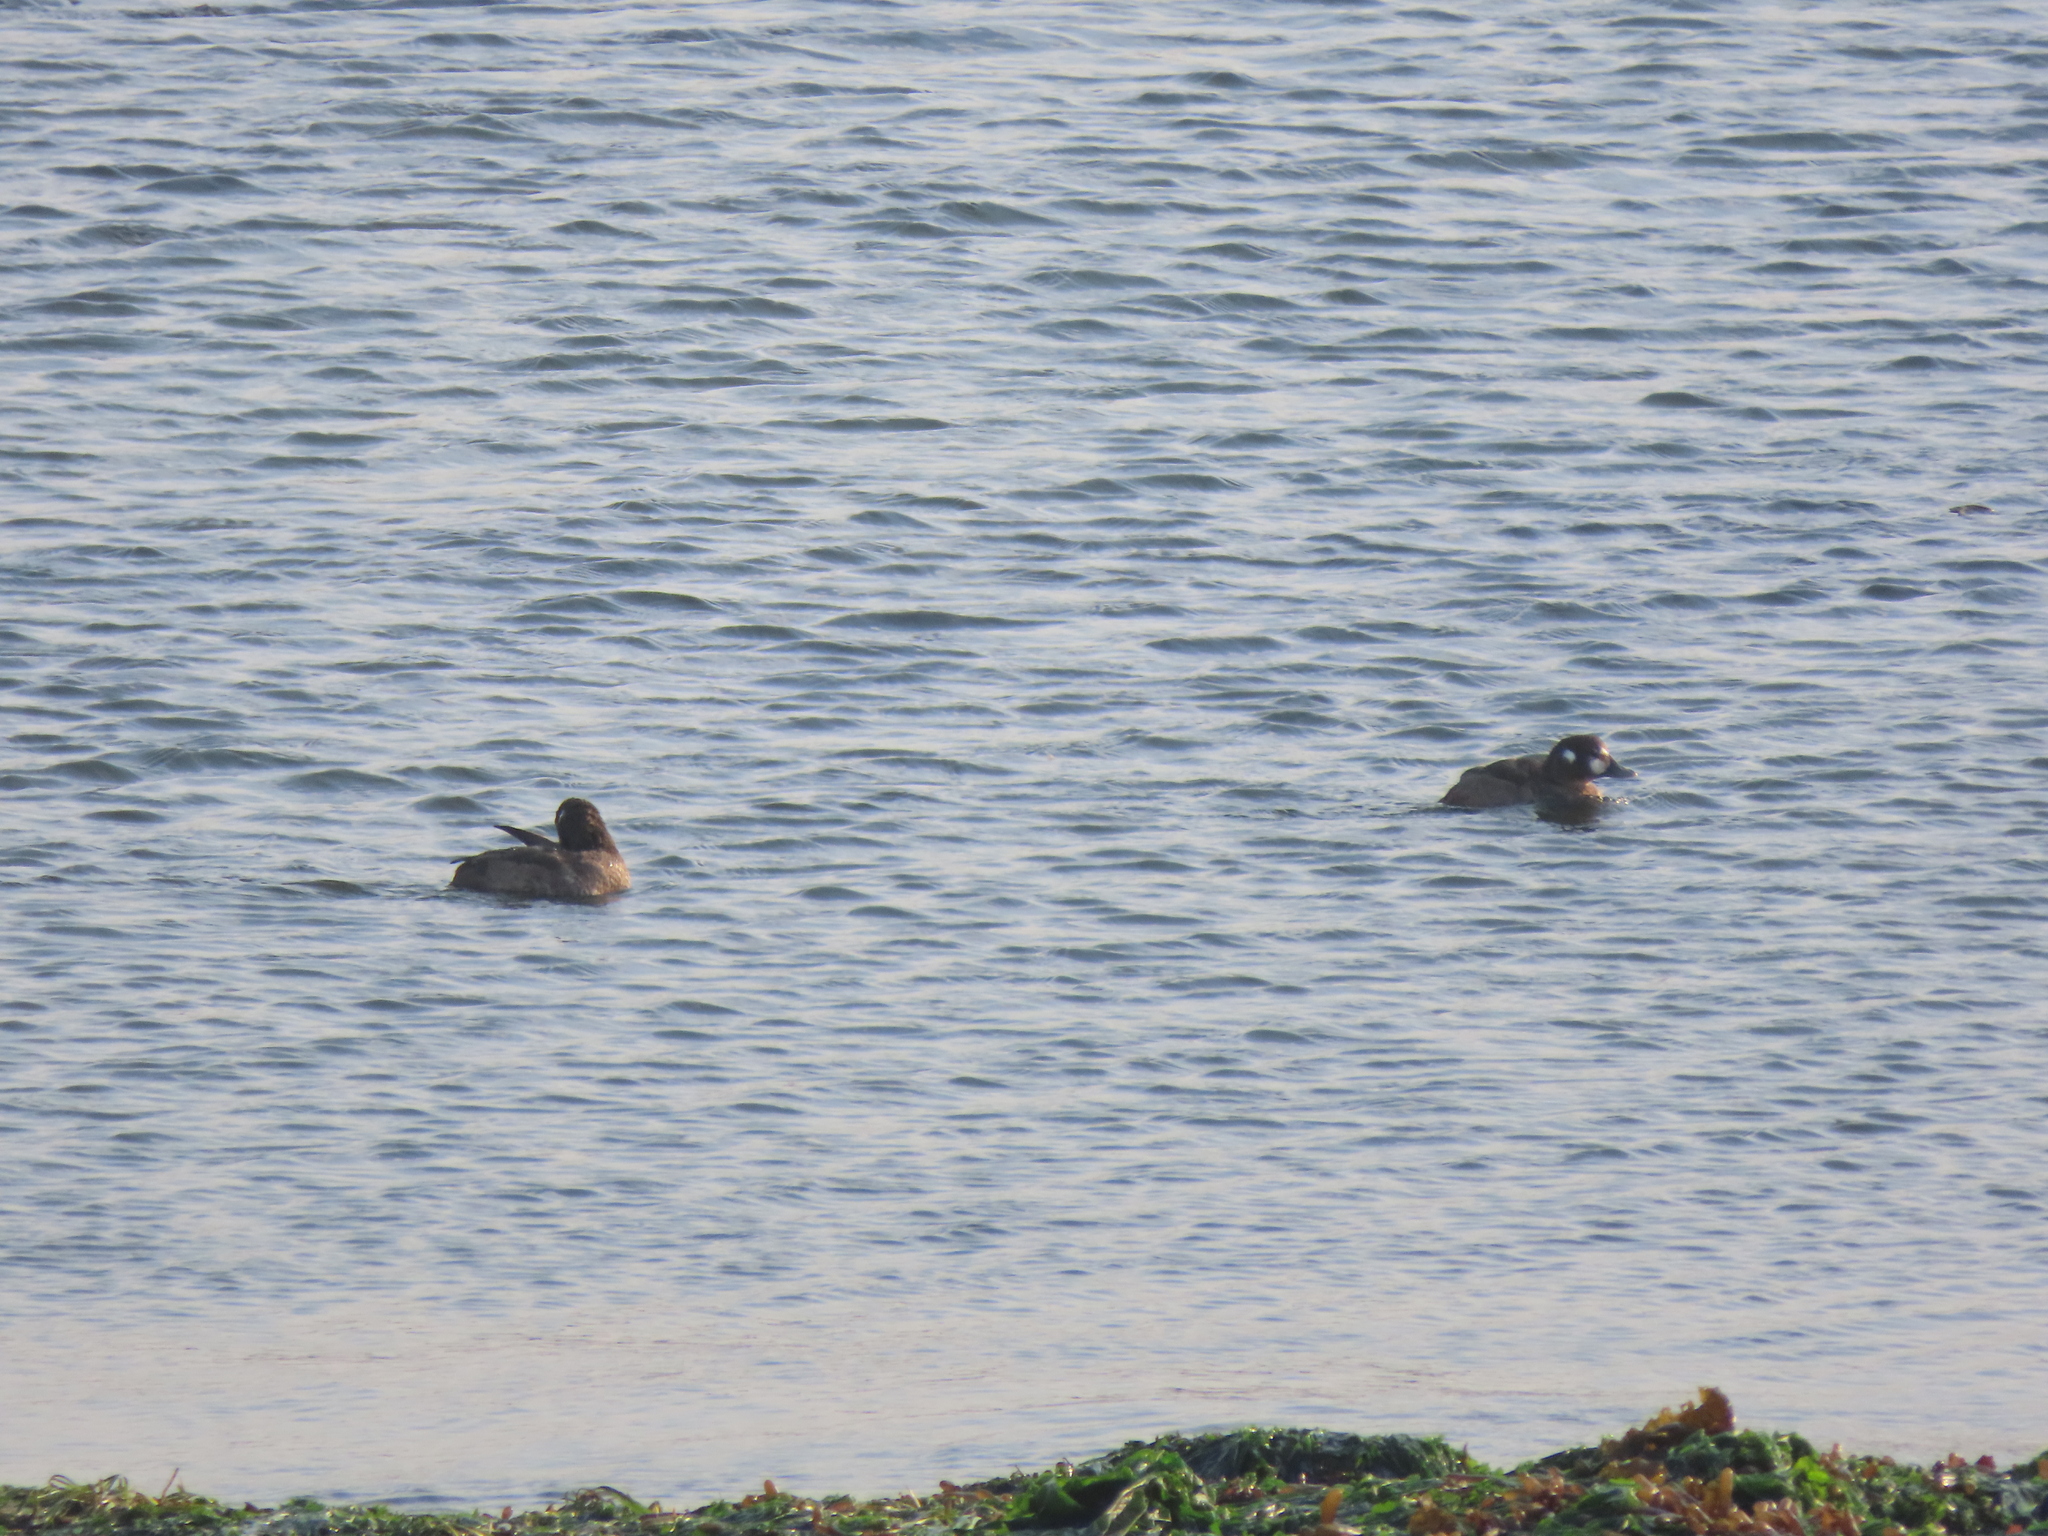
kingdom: Animalia
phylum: Chordata
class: Aves
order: Anseriformes
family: Anatidae
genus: Histrionicus
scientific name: Histrionicus histrionicus
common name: Harlequin duck
